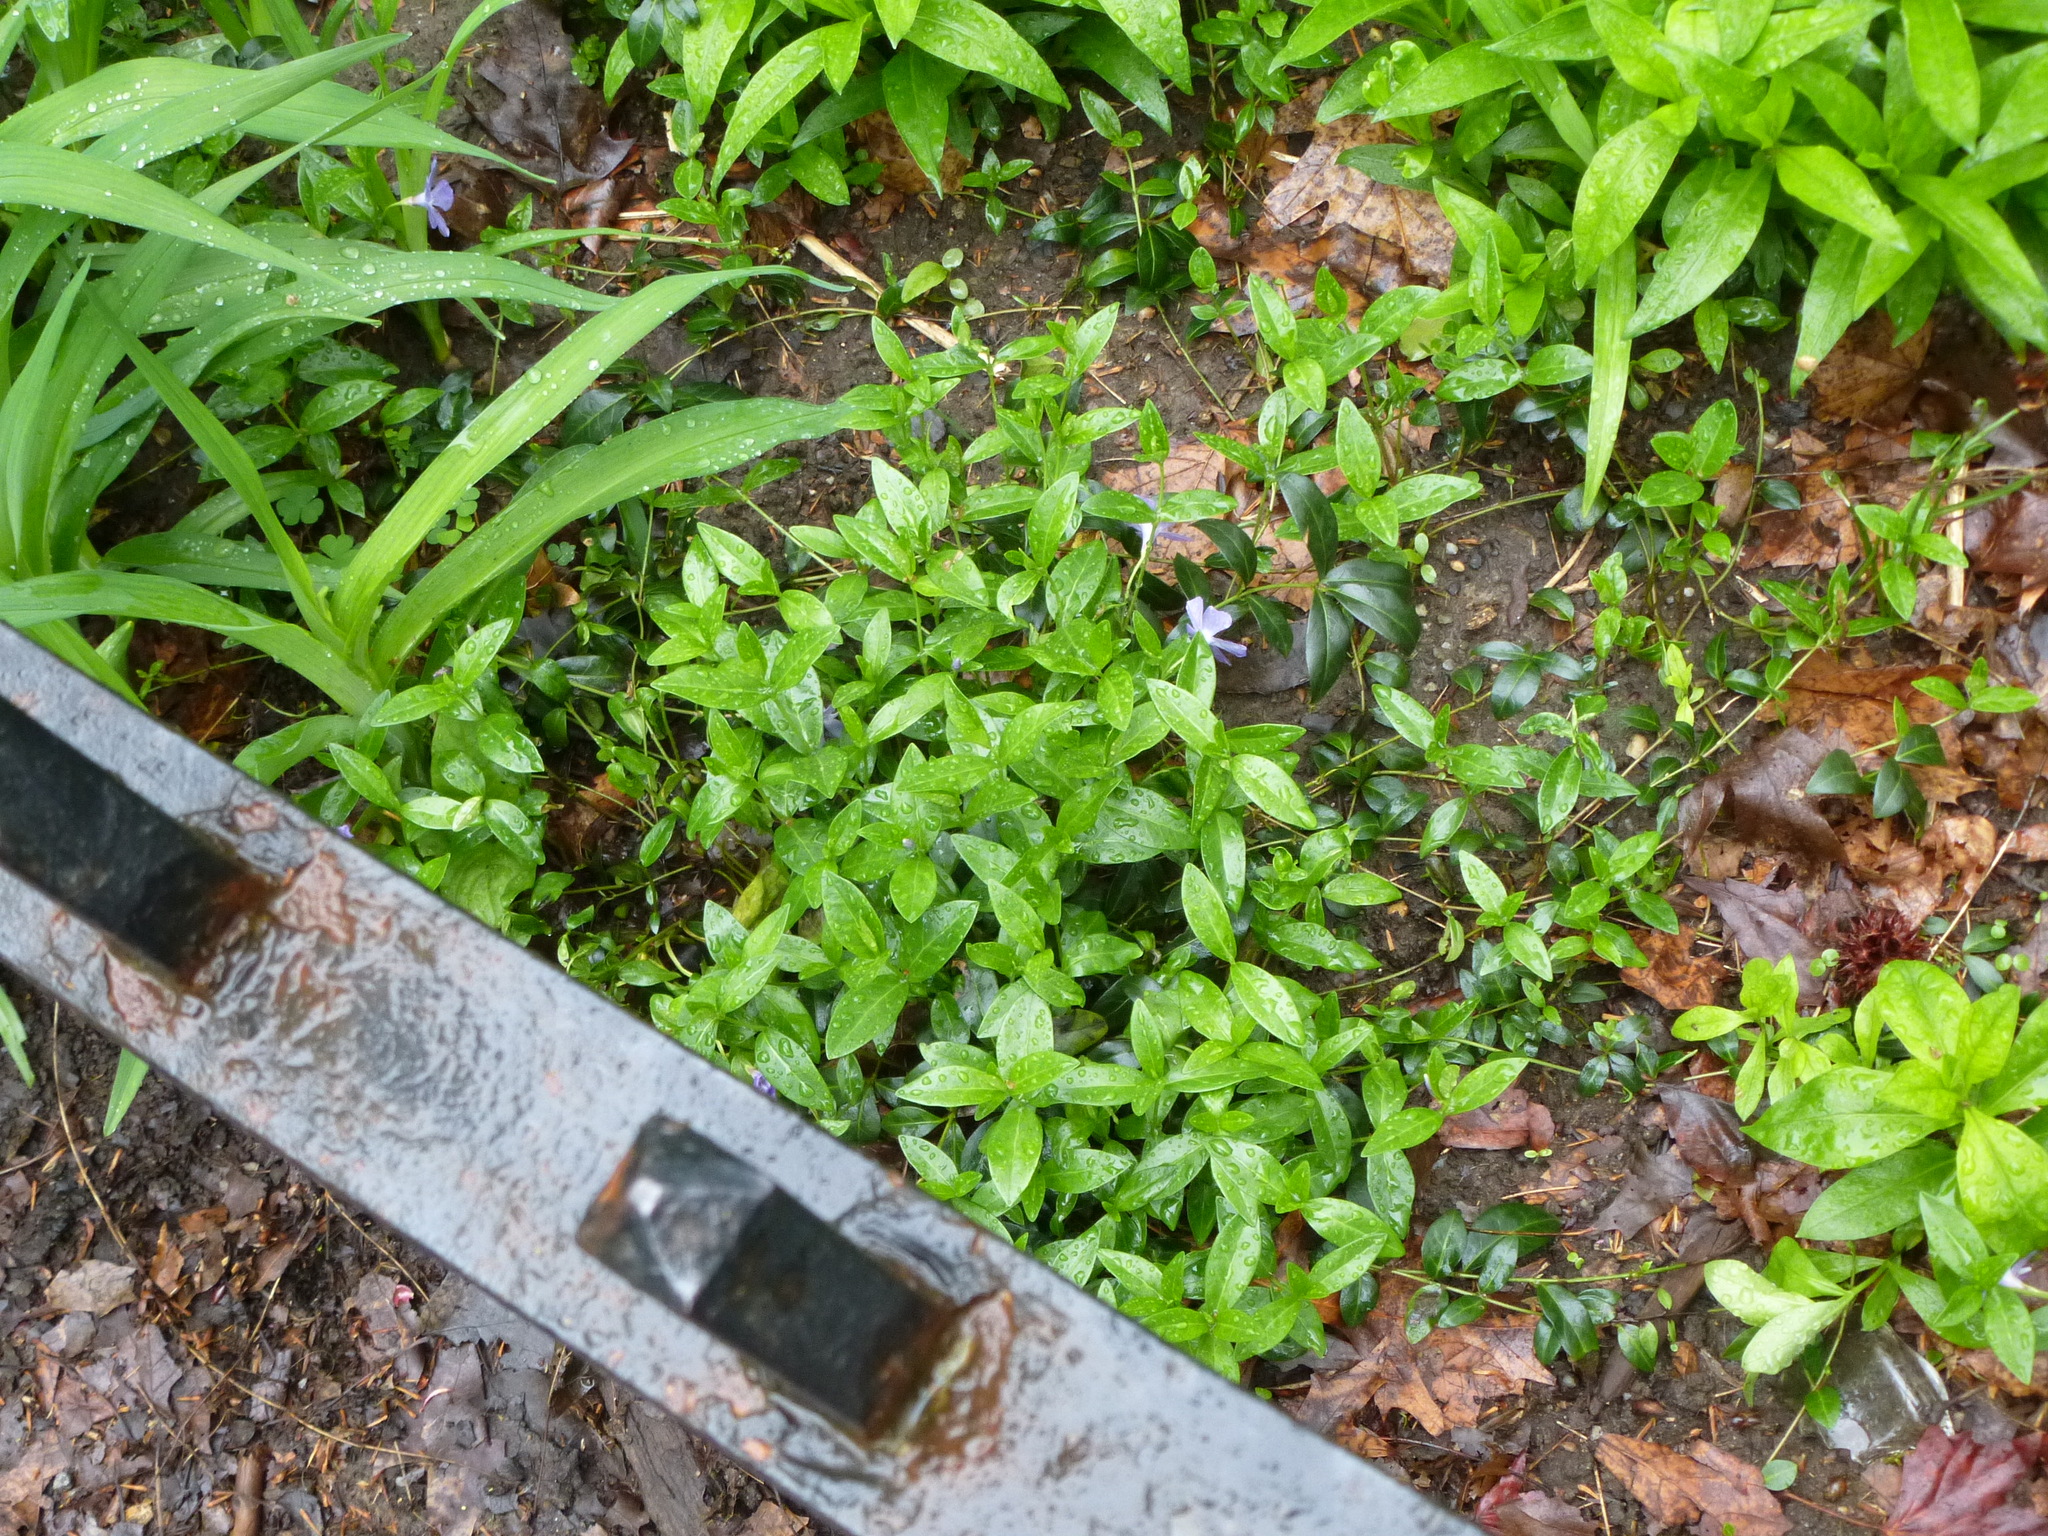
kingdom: Plantae
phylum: Tracheophyta
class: Magnoliopsida
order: Gentianales
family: Apocynaceae
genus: Vinca
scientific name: Vinca minor
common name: Lesser periwinkle
